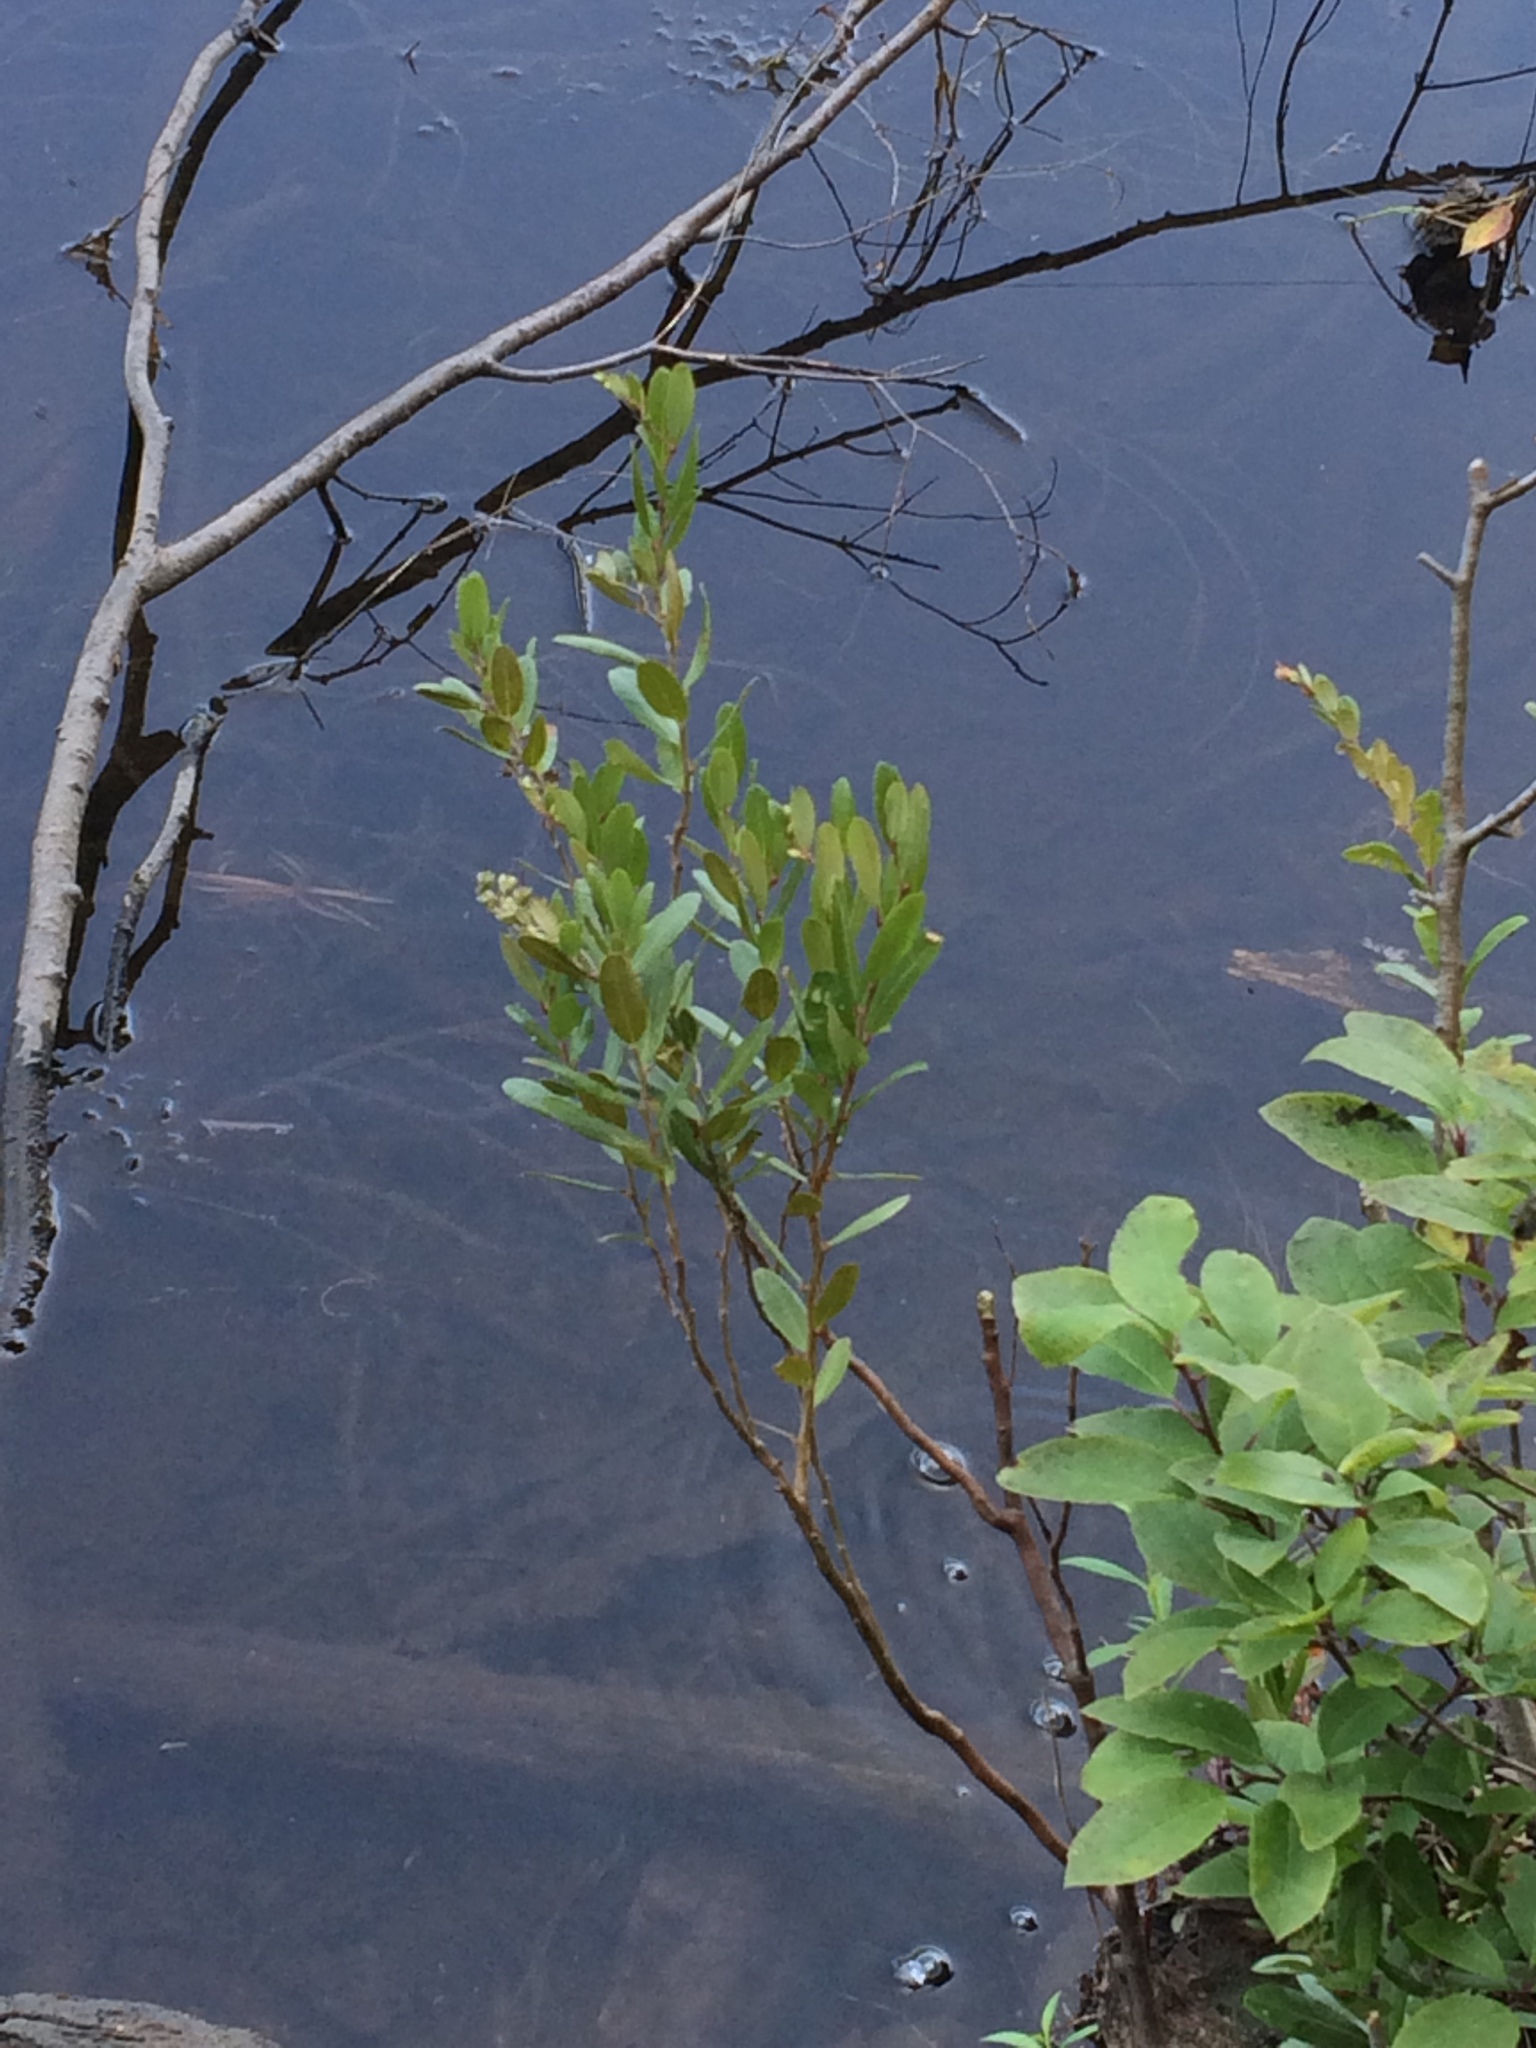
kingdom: Plantae
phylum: Tracheophyta
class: Magnoliopsida
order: Ericales
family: Ericaceae
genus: Chamaedaphne
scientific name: Chamaedaphne calyculata
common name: Leatherleaf
